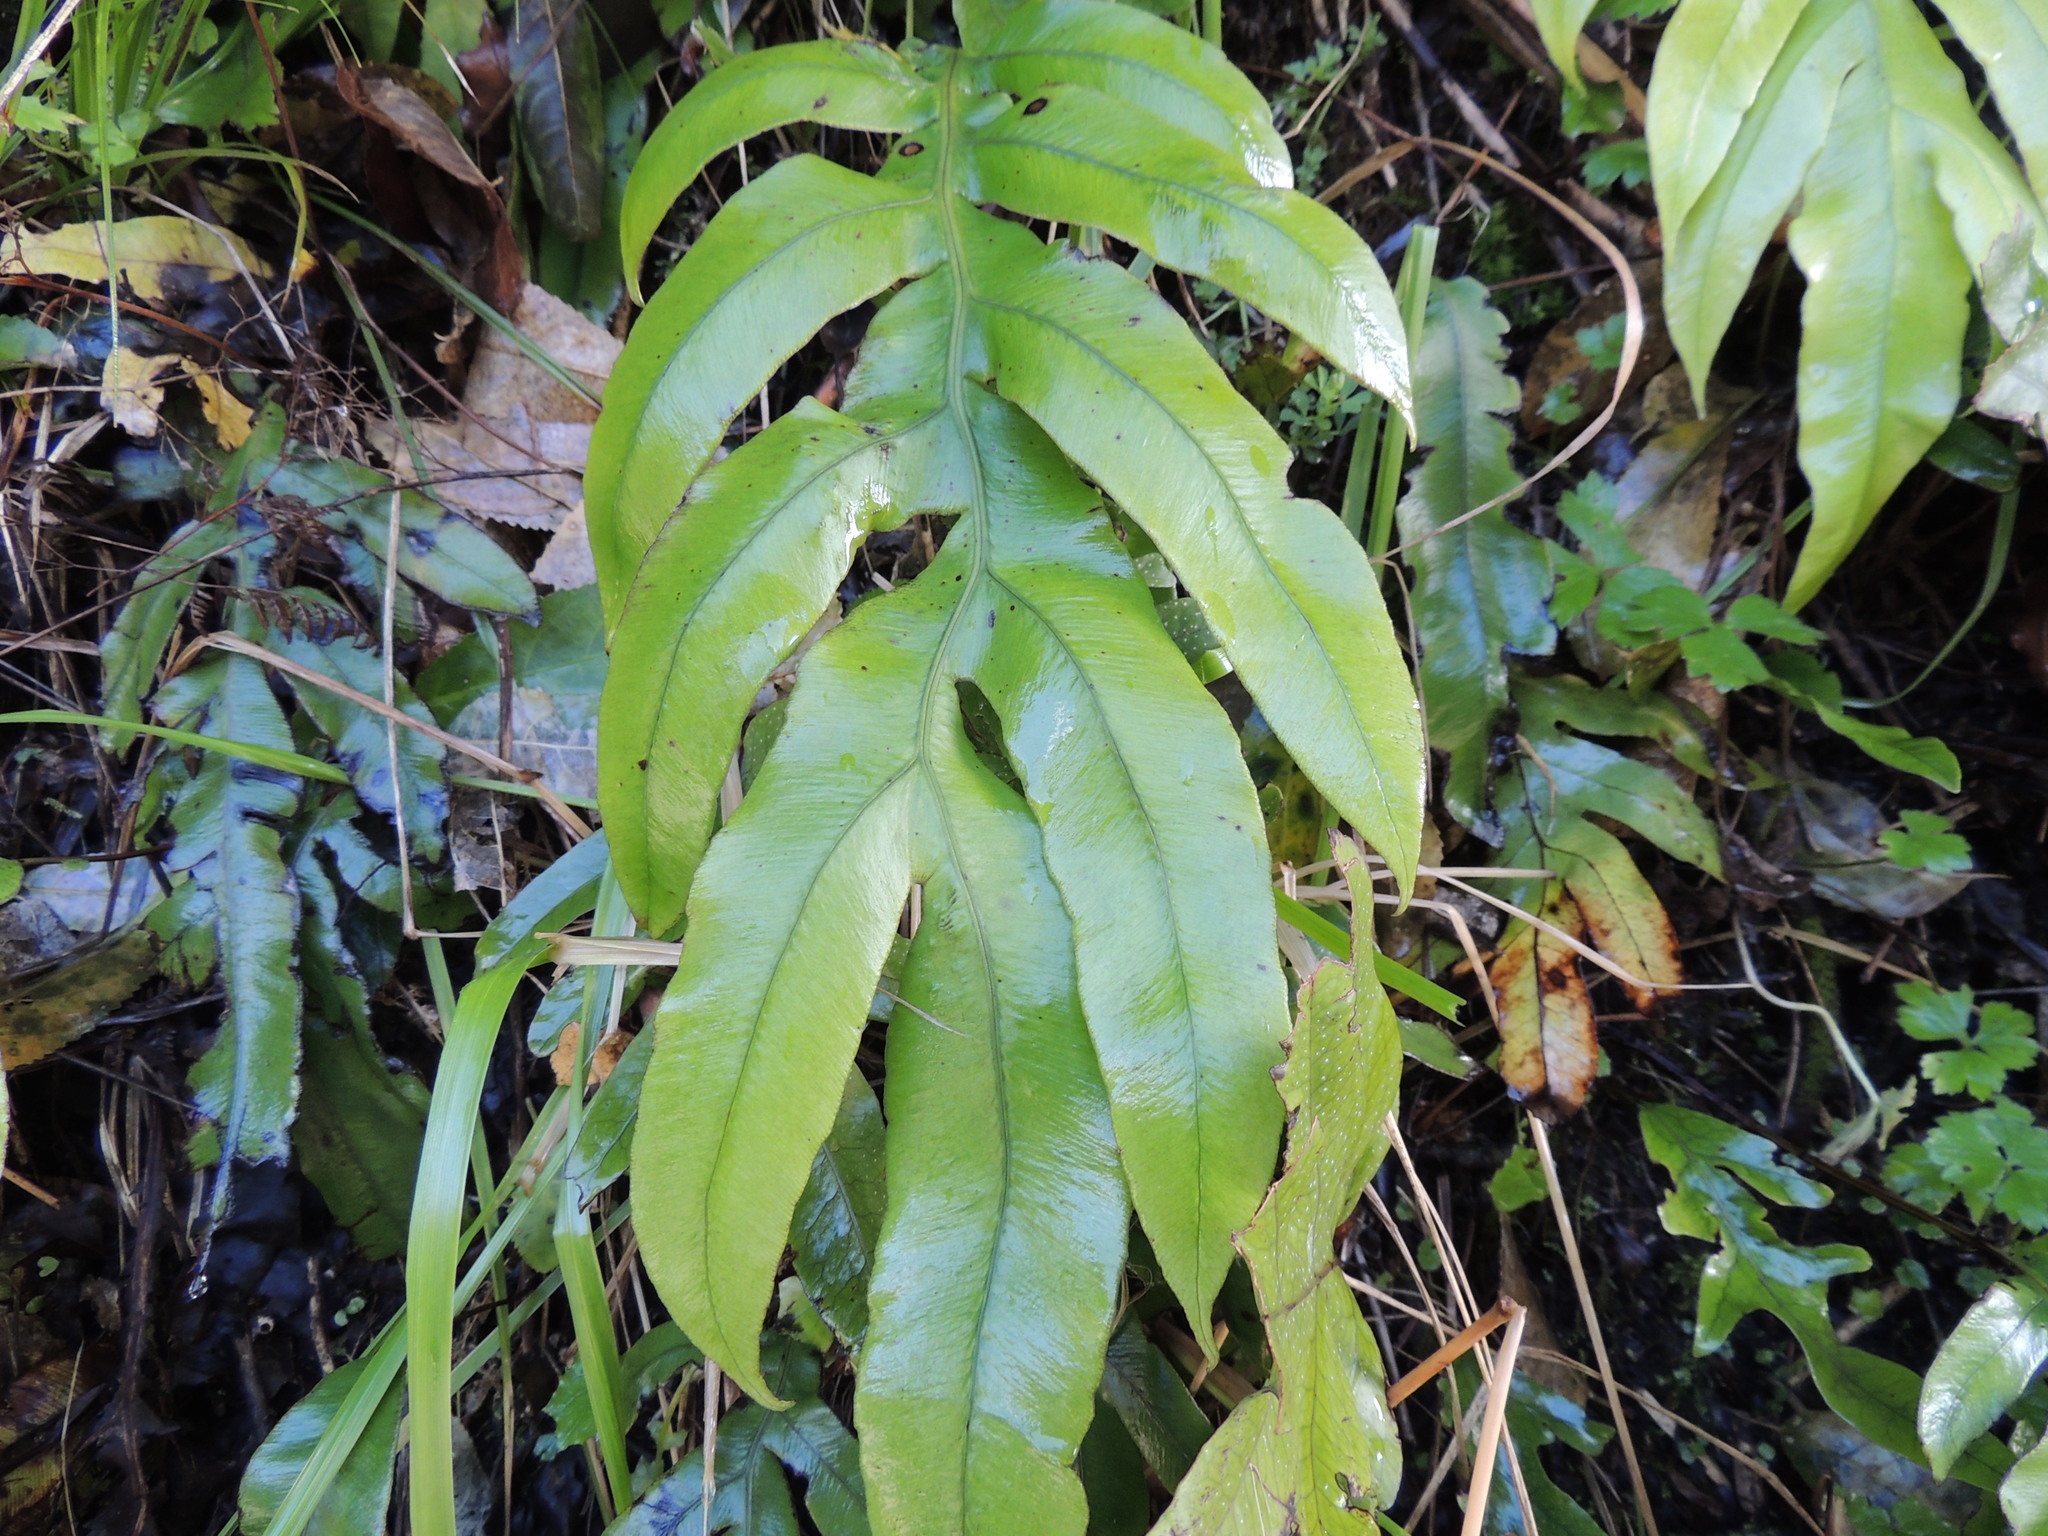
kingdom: Plantae
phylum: Tracheophyta
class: Polypodiopsida
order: Polypodiales
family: Blechnaceae
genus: Austroblechnum
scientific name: Austroblechnum colensoi
